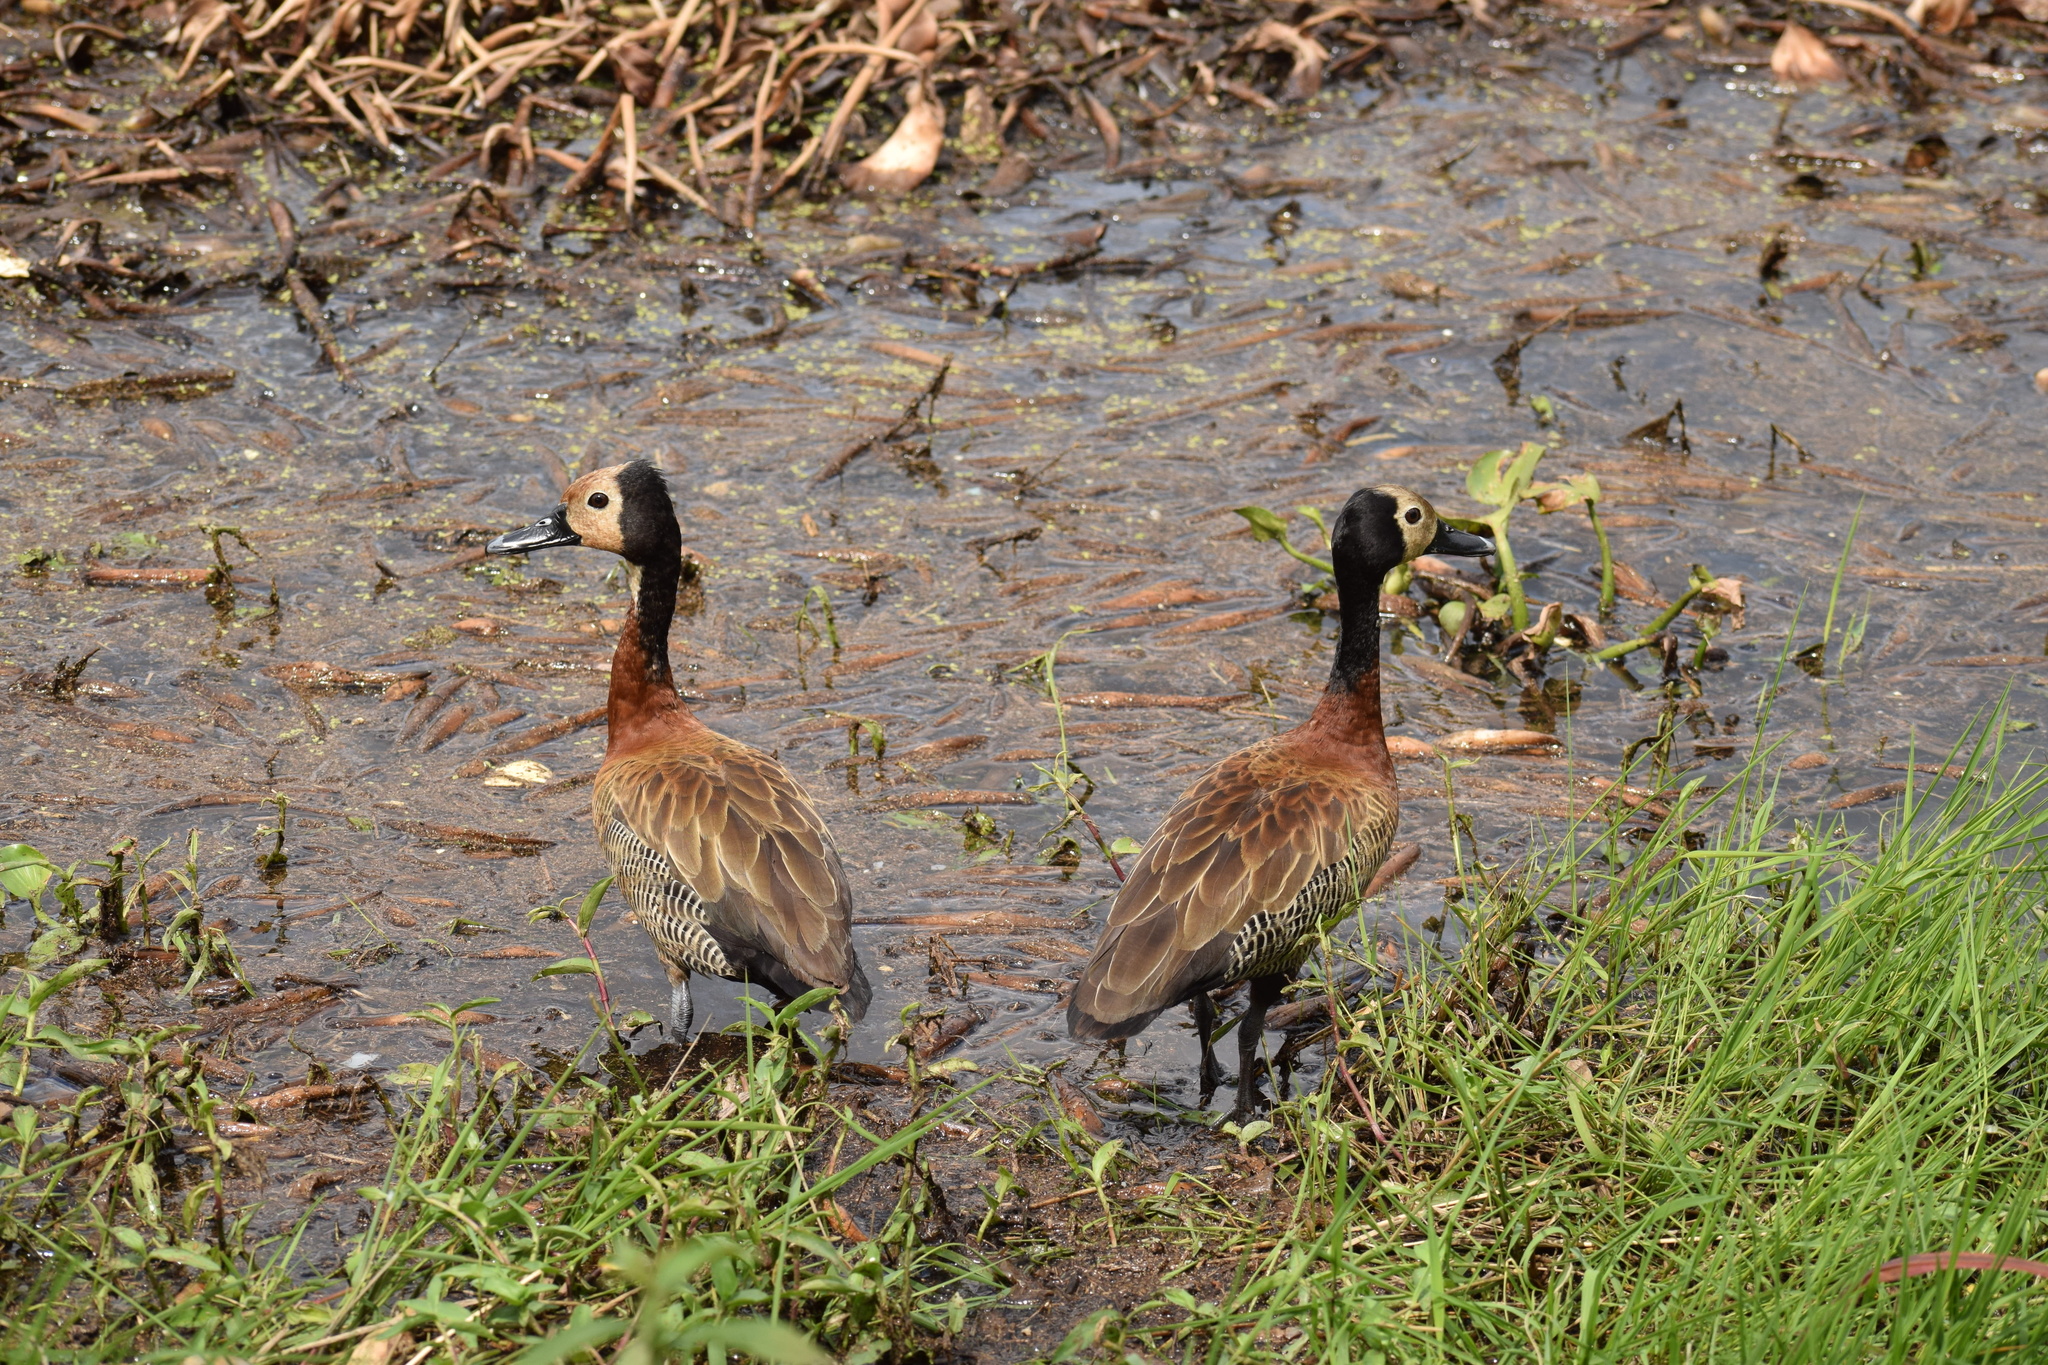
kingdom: Animalia
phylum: Chordata
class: Aves
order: Anseriformes
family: Anatidae
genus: Dendrocygna
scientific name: Dendrocygna viduata
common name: White-faced whistling duck
